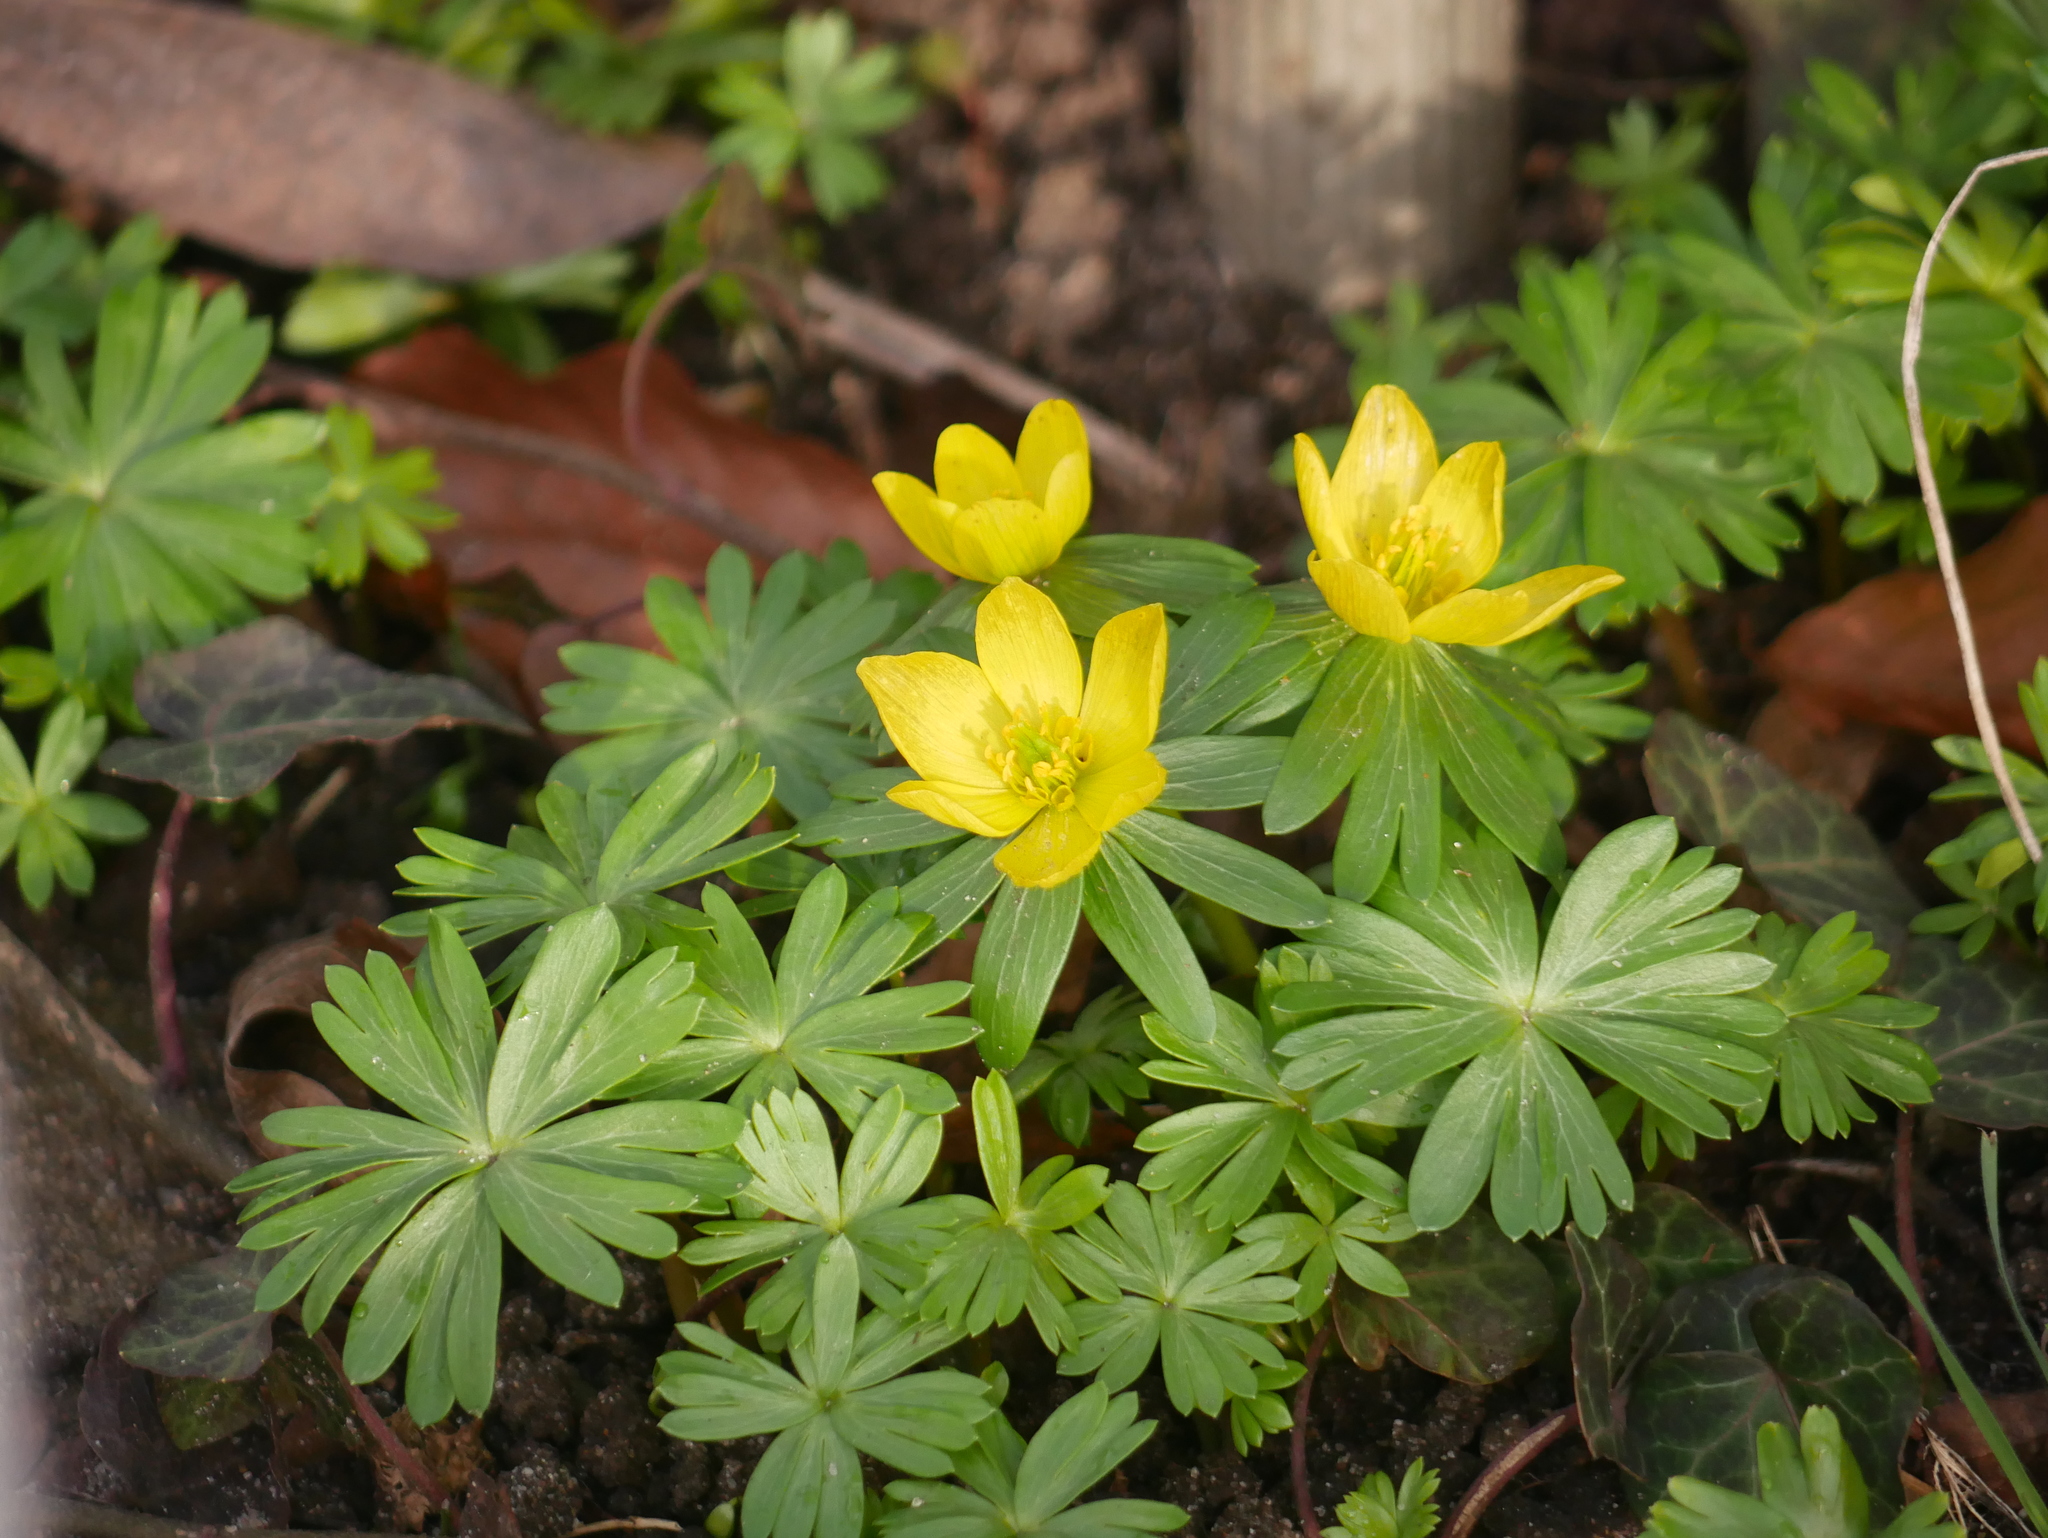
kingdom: Plantae
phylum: Tracheophyta
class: Magnoliopsida
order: Ranunculales
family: Ranunculaceae
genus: Eranthis
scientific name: Eranthis hyemalis
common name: Winter aconite
